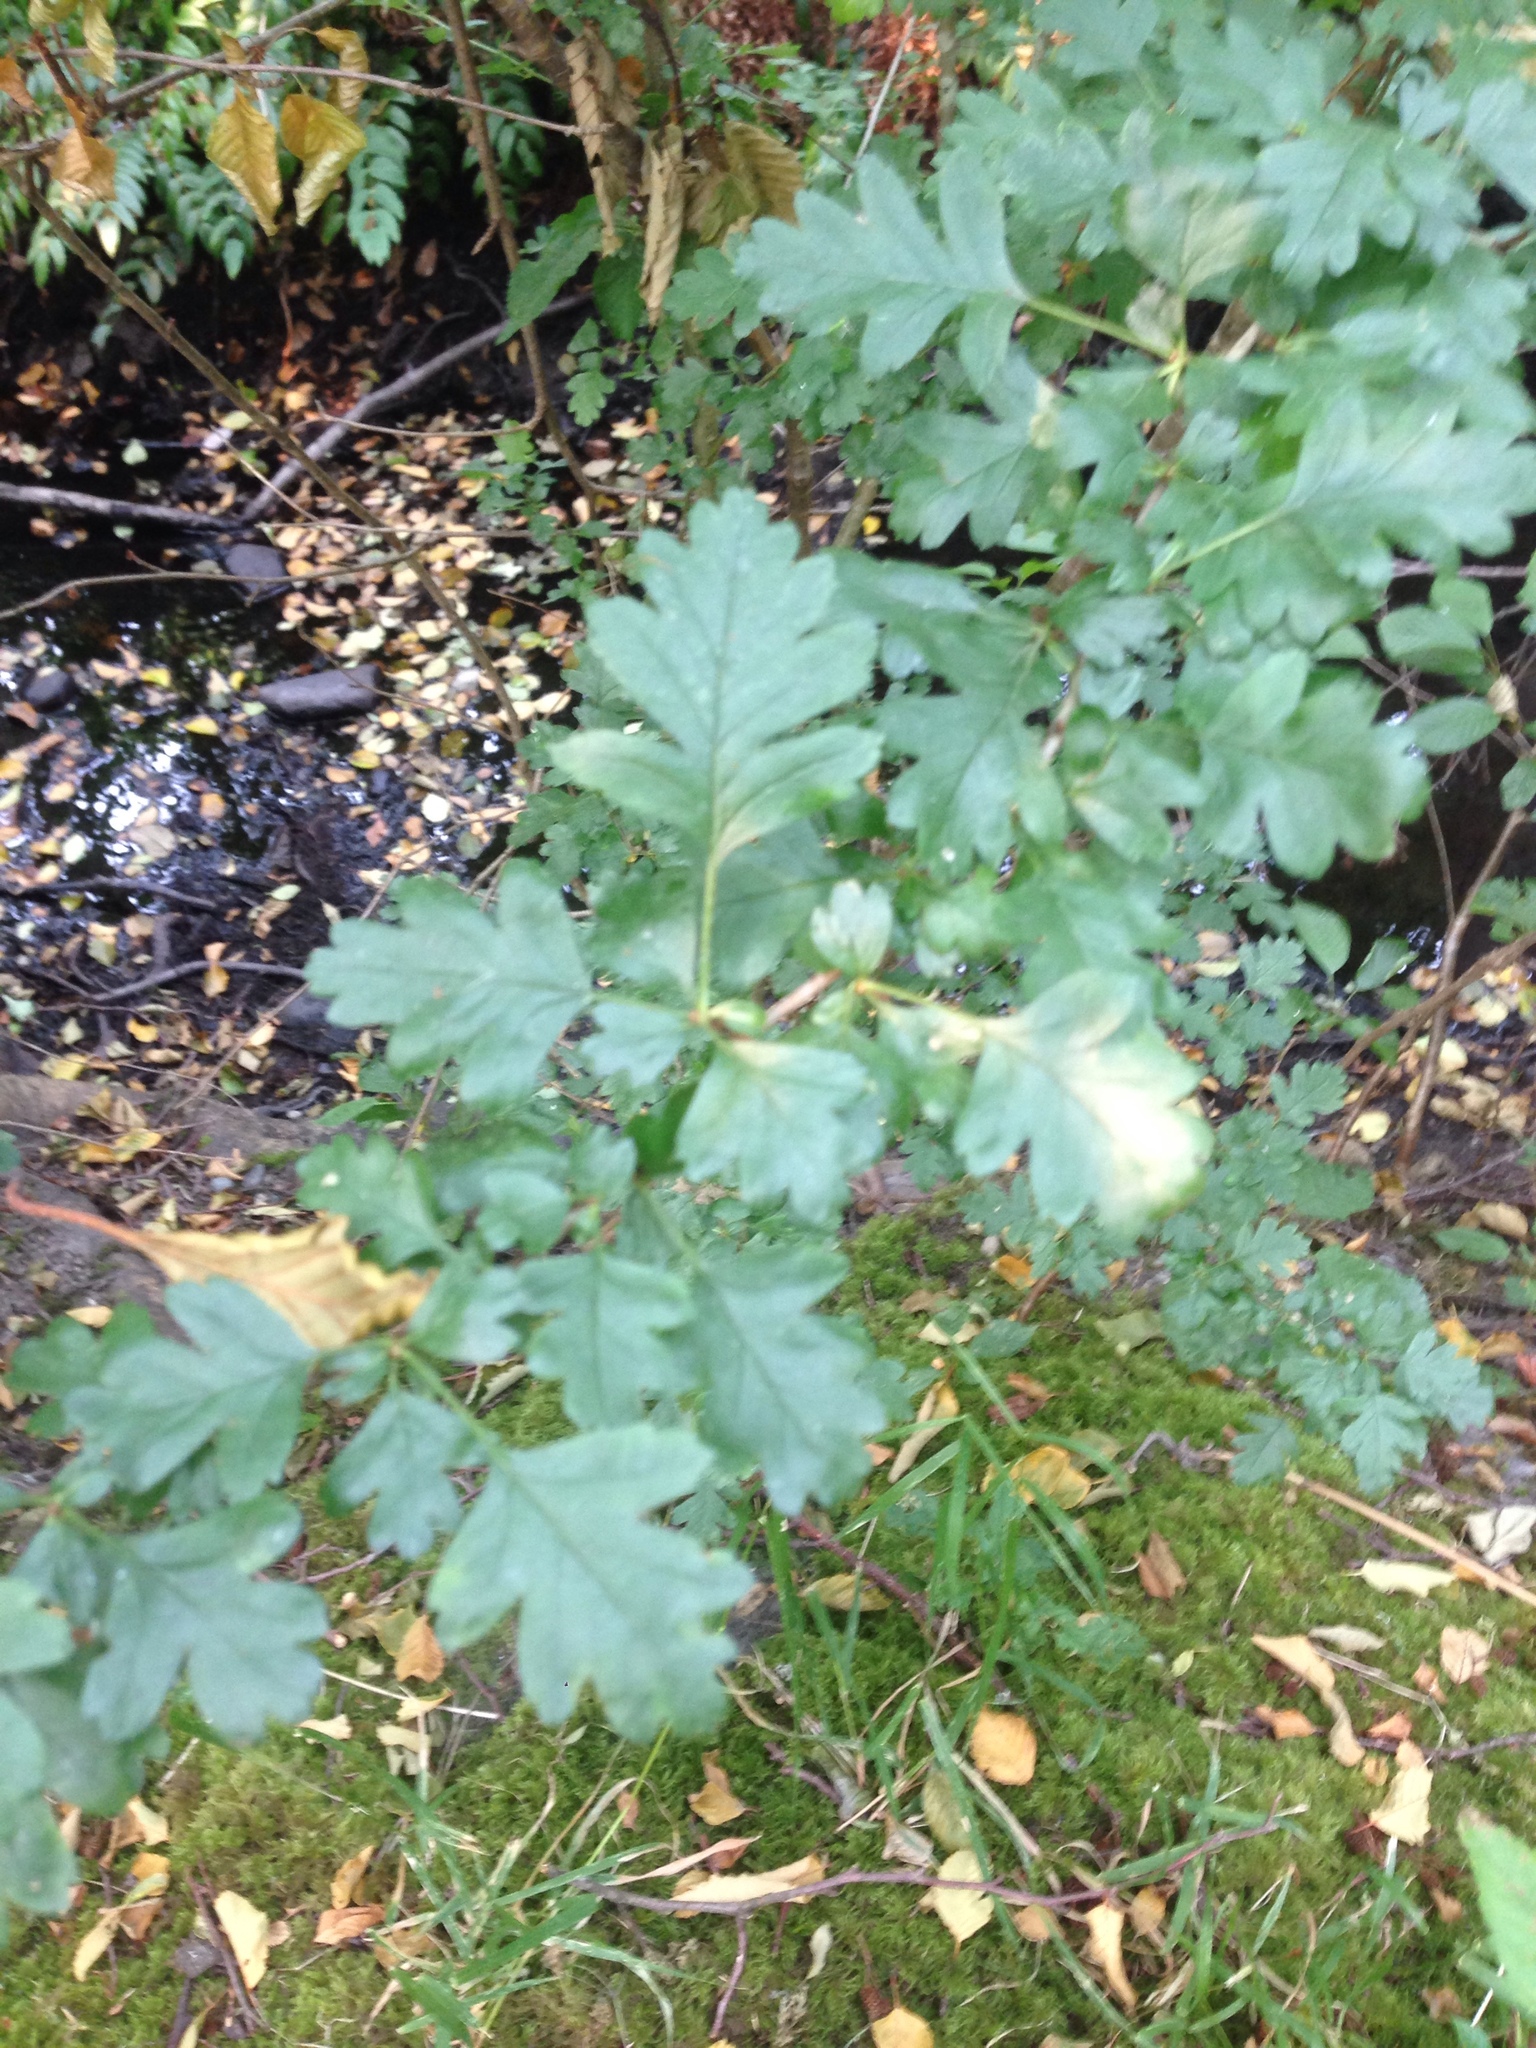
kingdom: Plantae
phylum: Tracheophyta
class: Magnoliopsida
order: Rosales
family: Rosaceae
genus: Crataegus
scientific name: Crataegus monogyna
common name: Hawthorn
